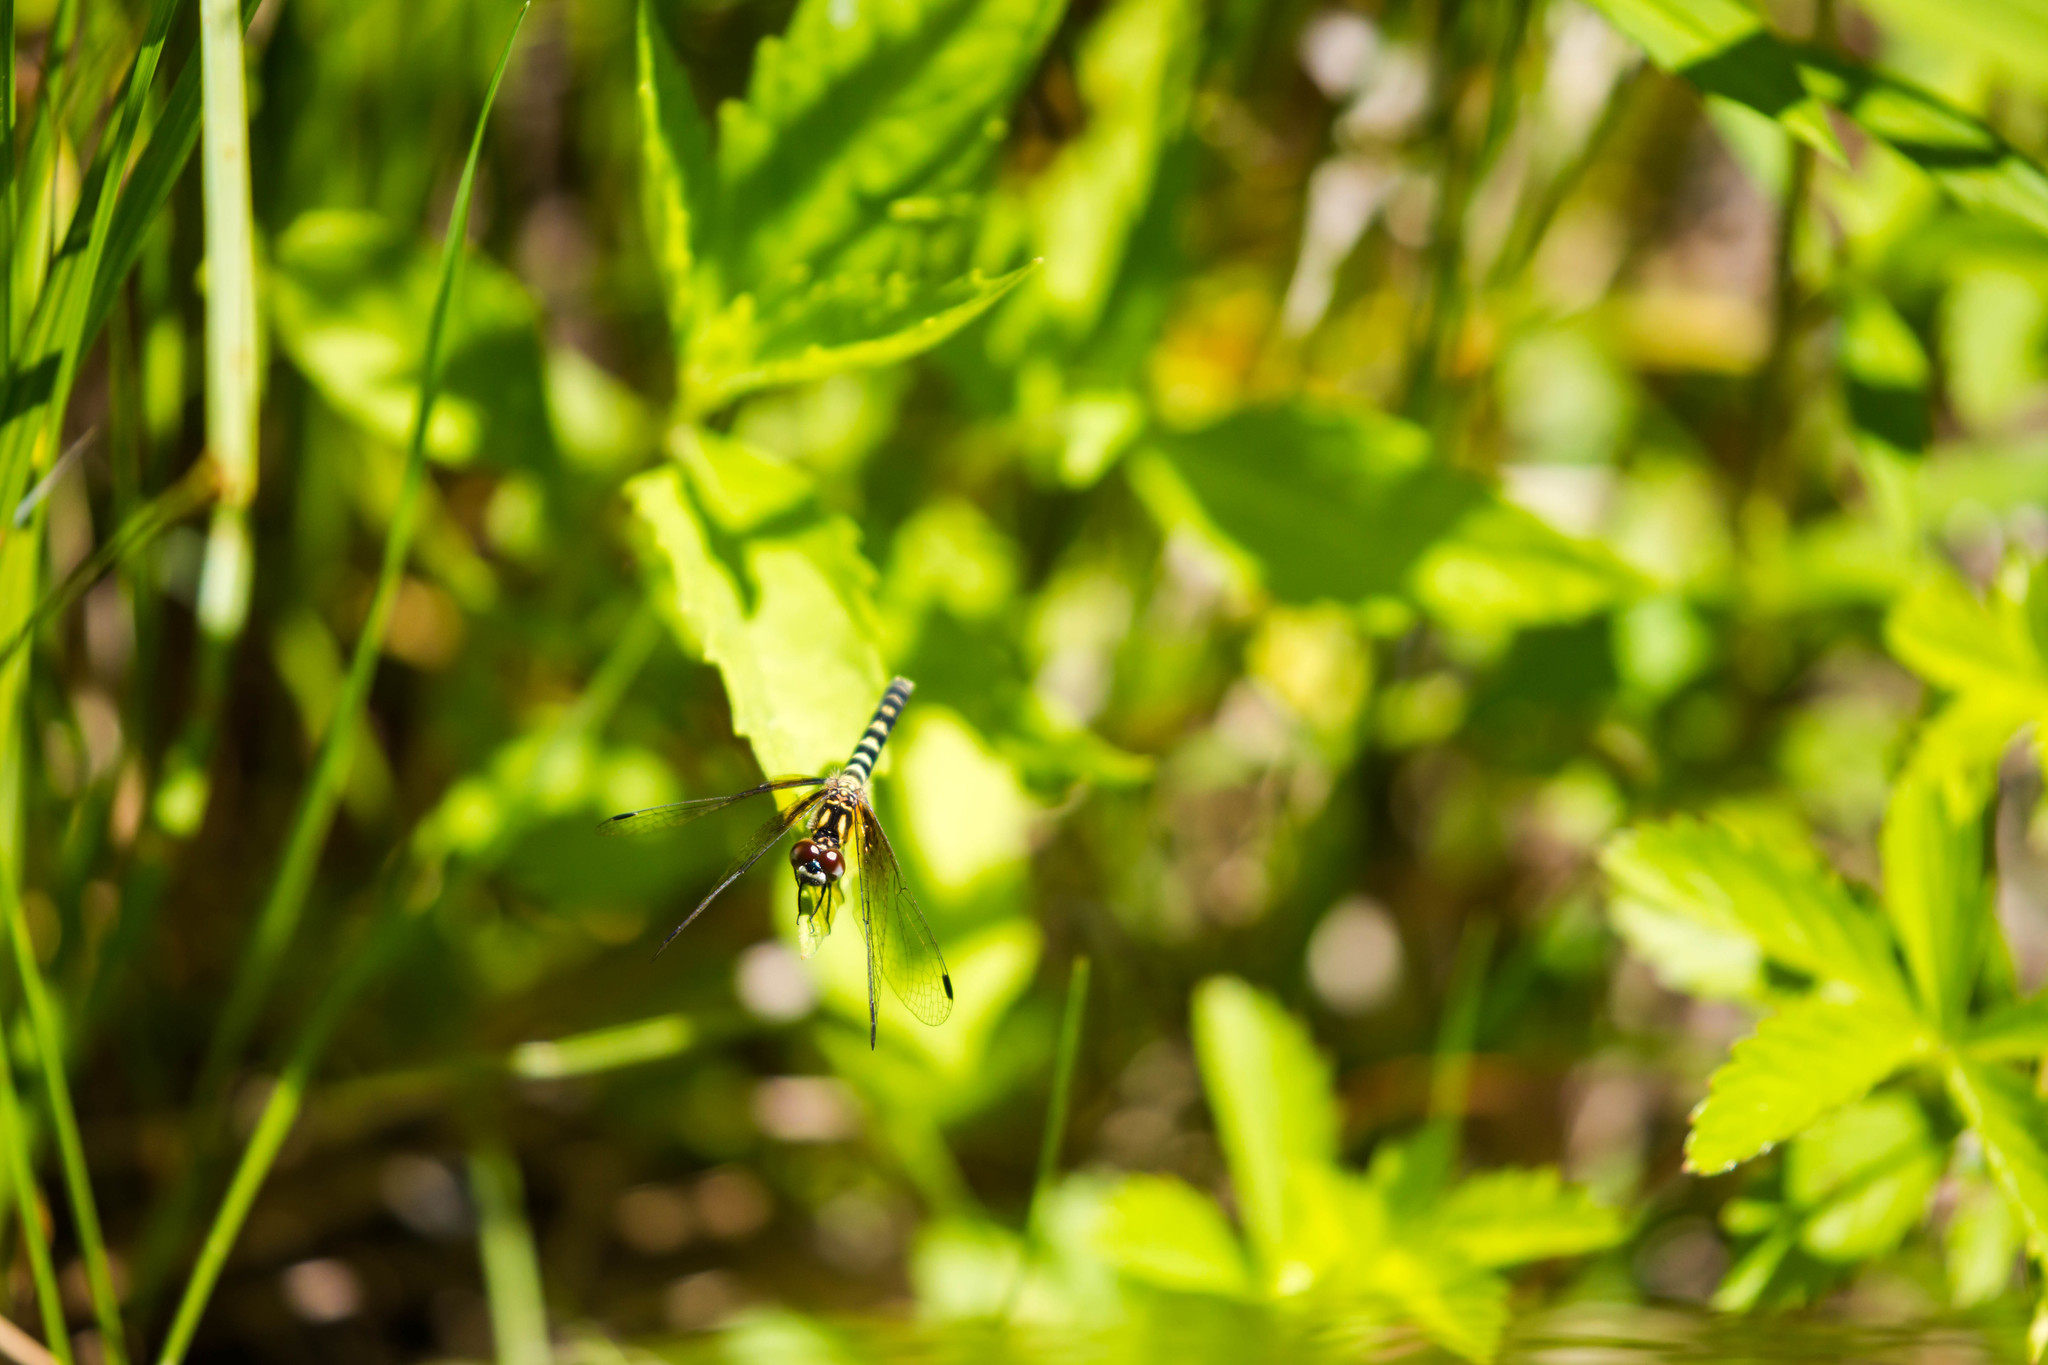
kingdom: Animalia
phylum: Arthropoda
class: Insecta
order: Odonata
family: Libellulidae
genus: Nannothemis
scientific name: Nannothemis bella
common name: Elfin skimmer
